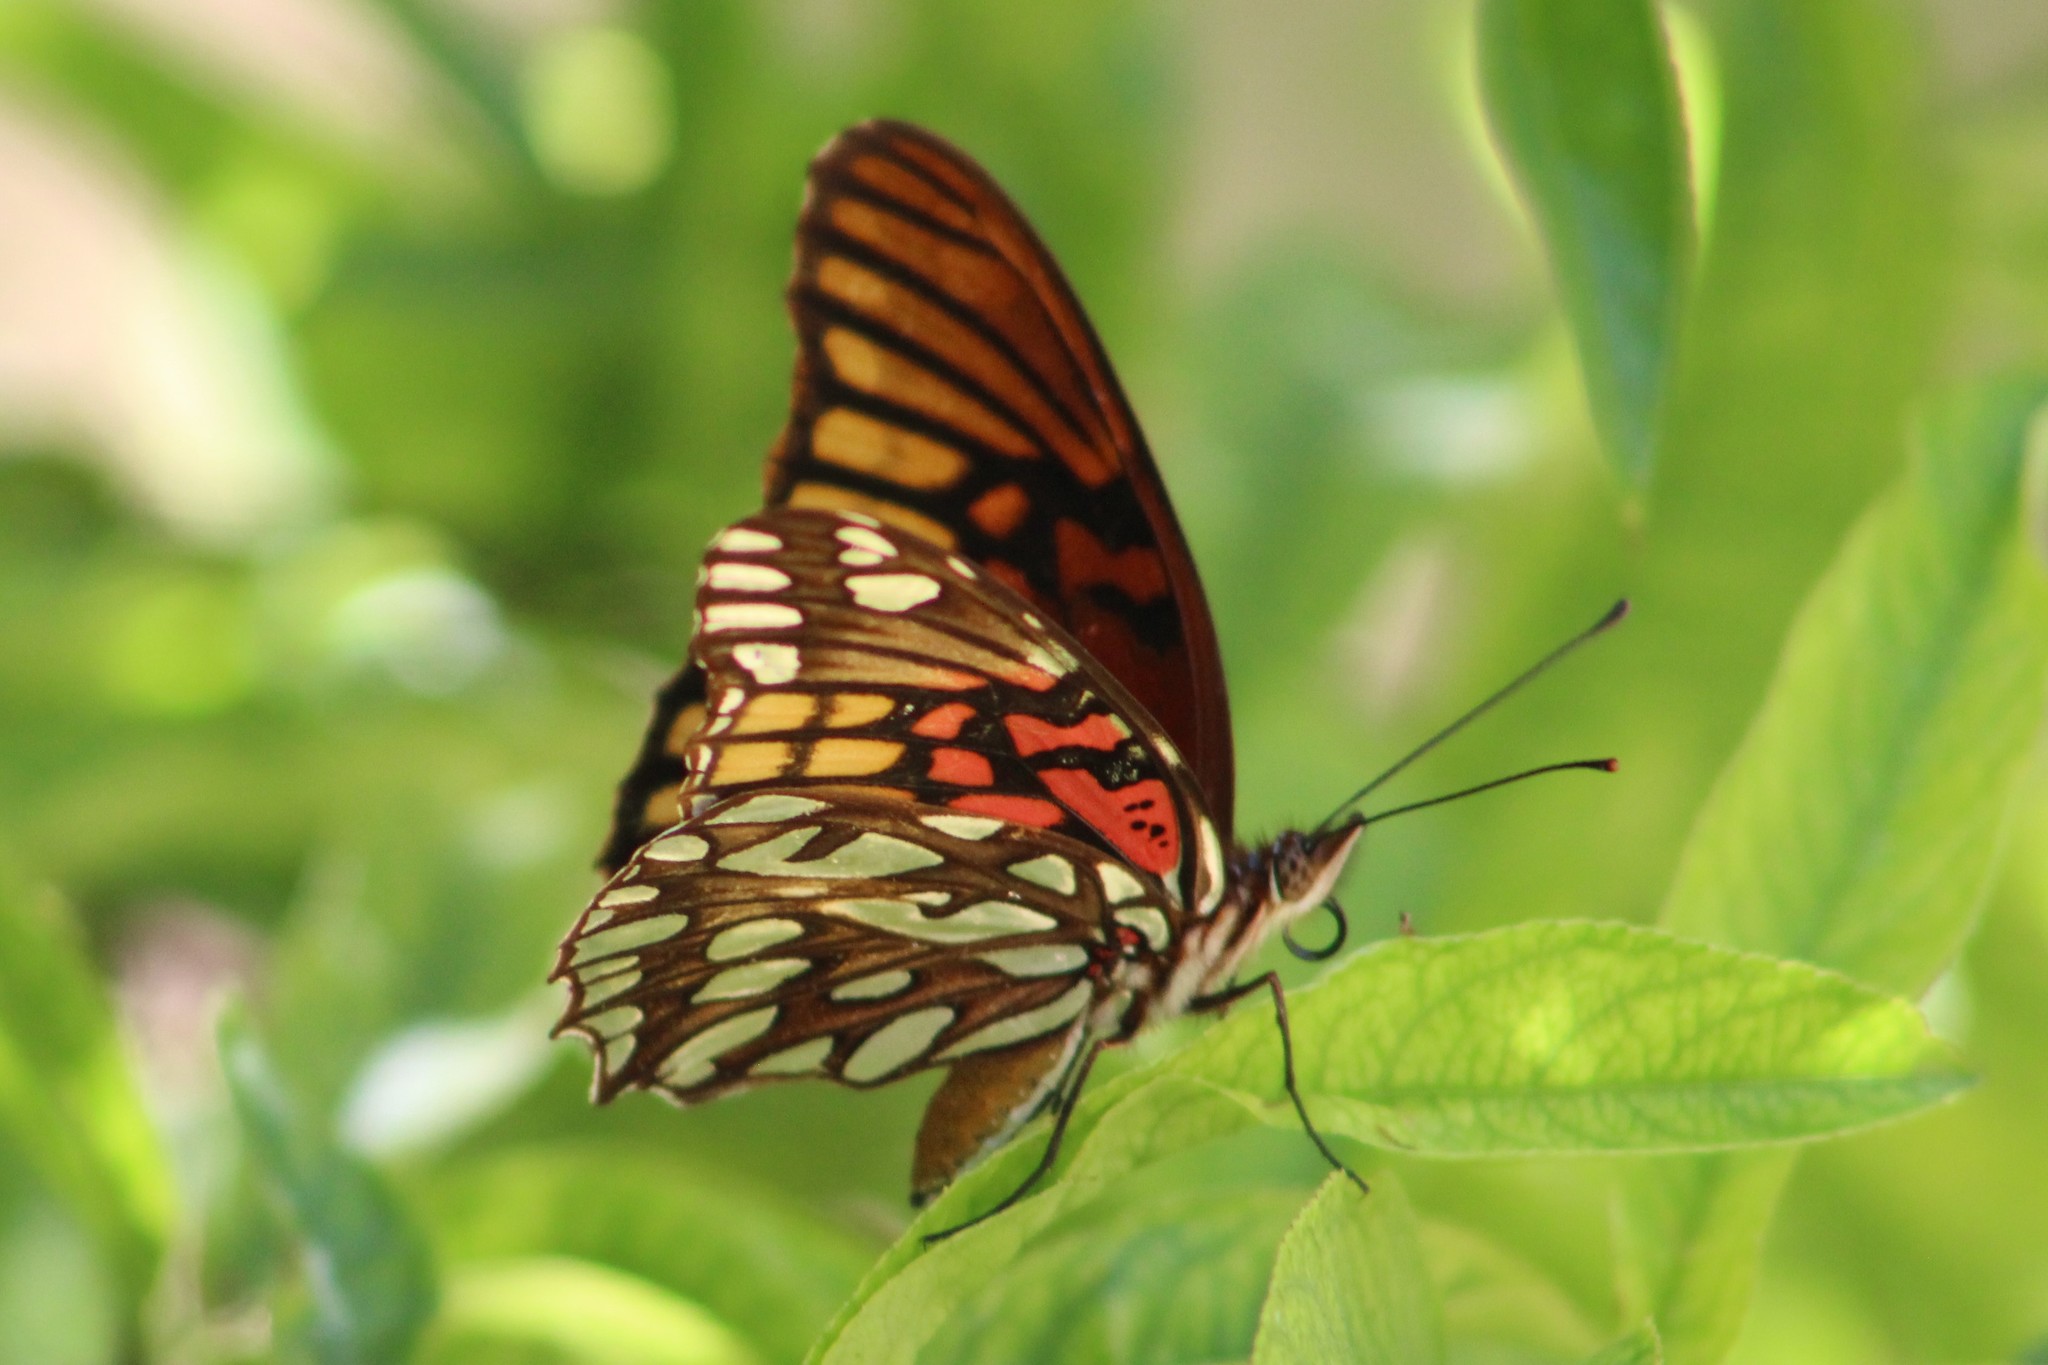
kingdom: Animalia
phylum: Arthropoda
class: Insecta
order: Lepidoptera
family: Nymphalidae
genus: Dione
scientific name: Dione moneta
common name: Mexican silverspot
